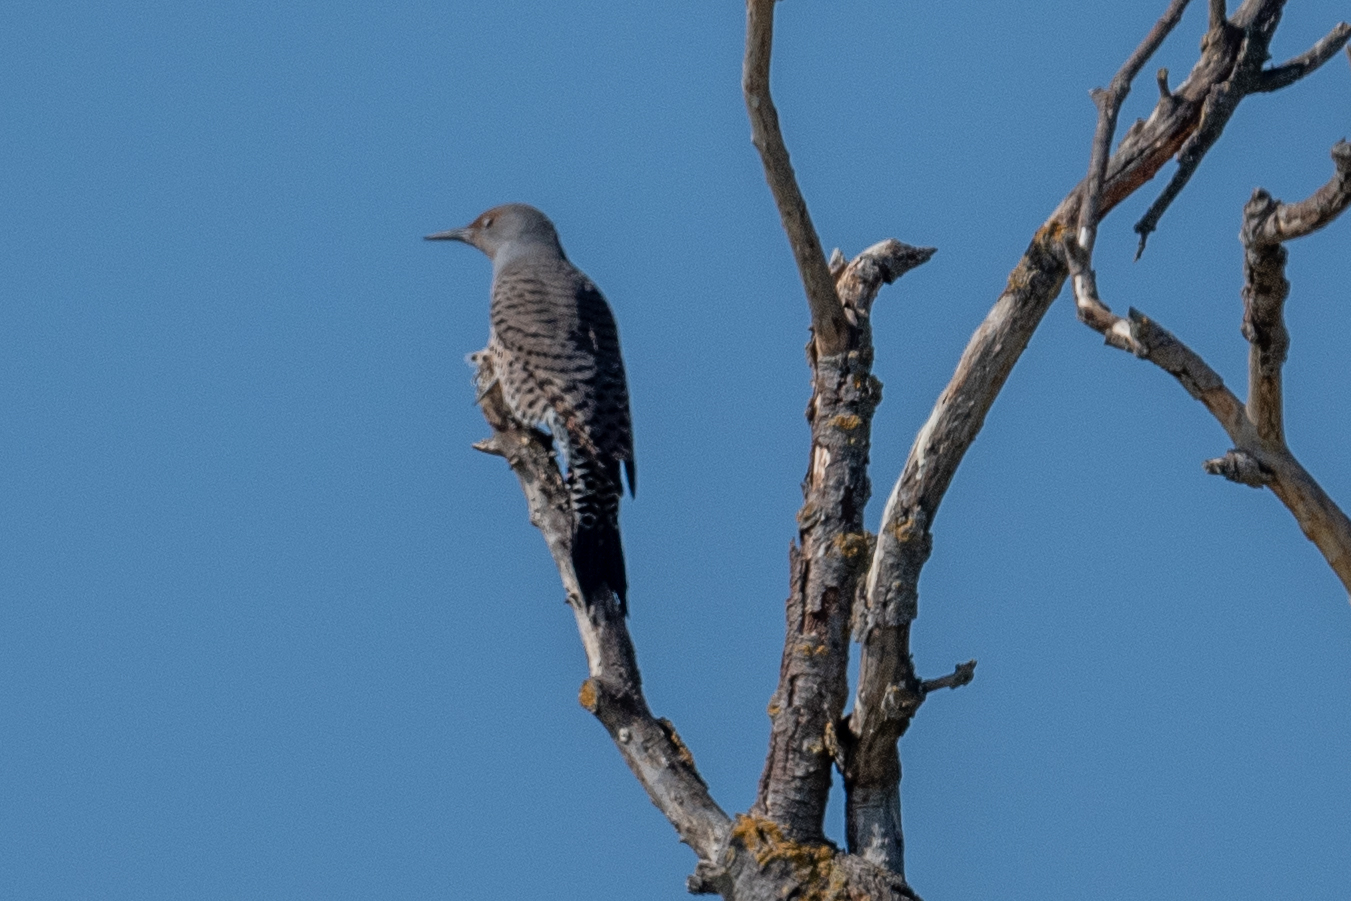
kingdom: Animalia
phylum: Chordata
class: Aves
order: Piciformes
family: Picidae
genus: Colaptes
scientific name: Colaptes auratus
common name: Northern flicker
